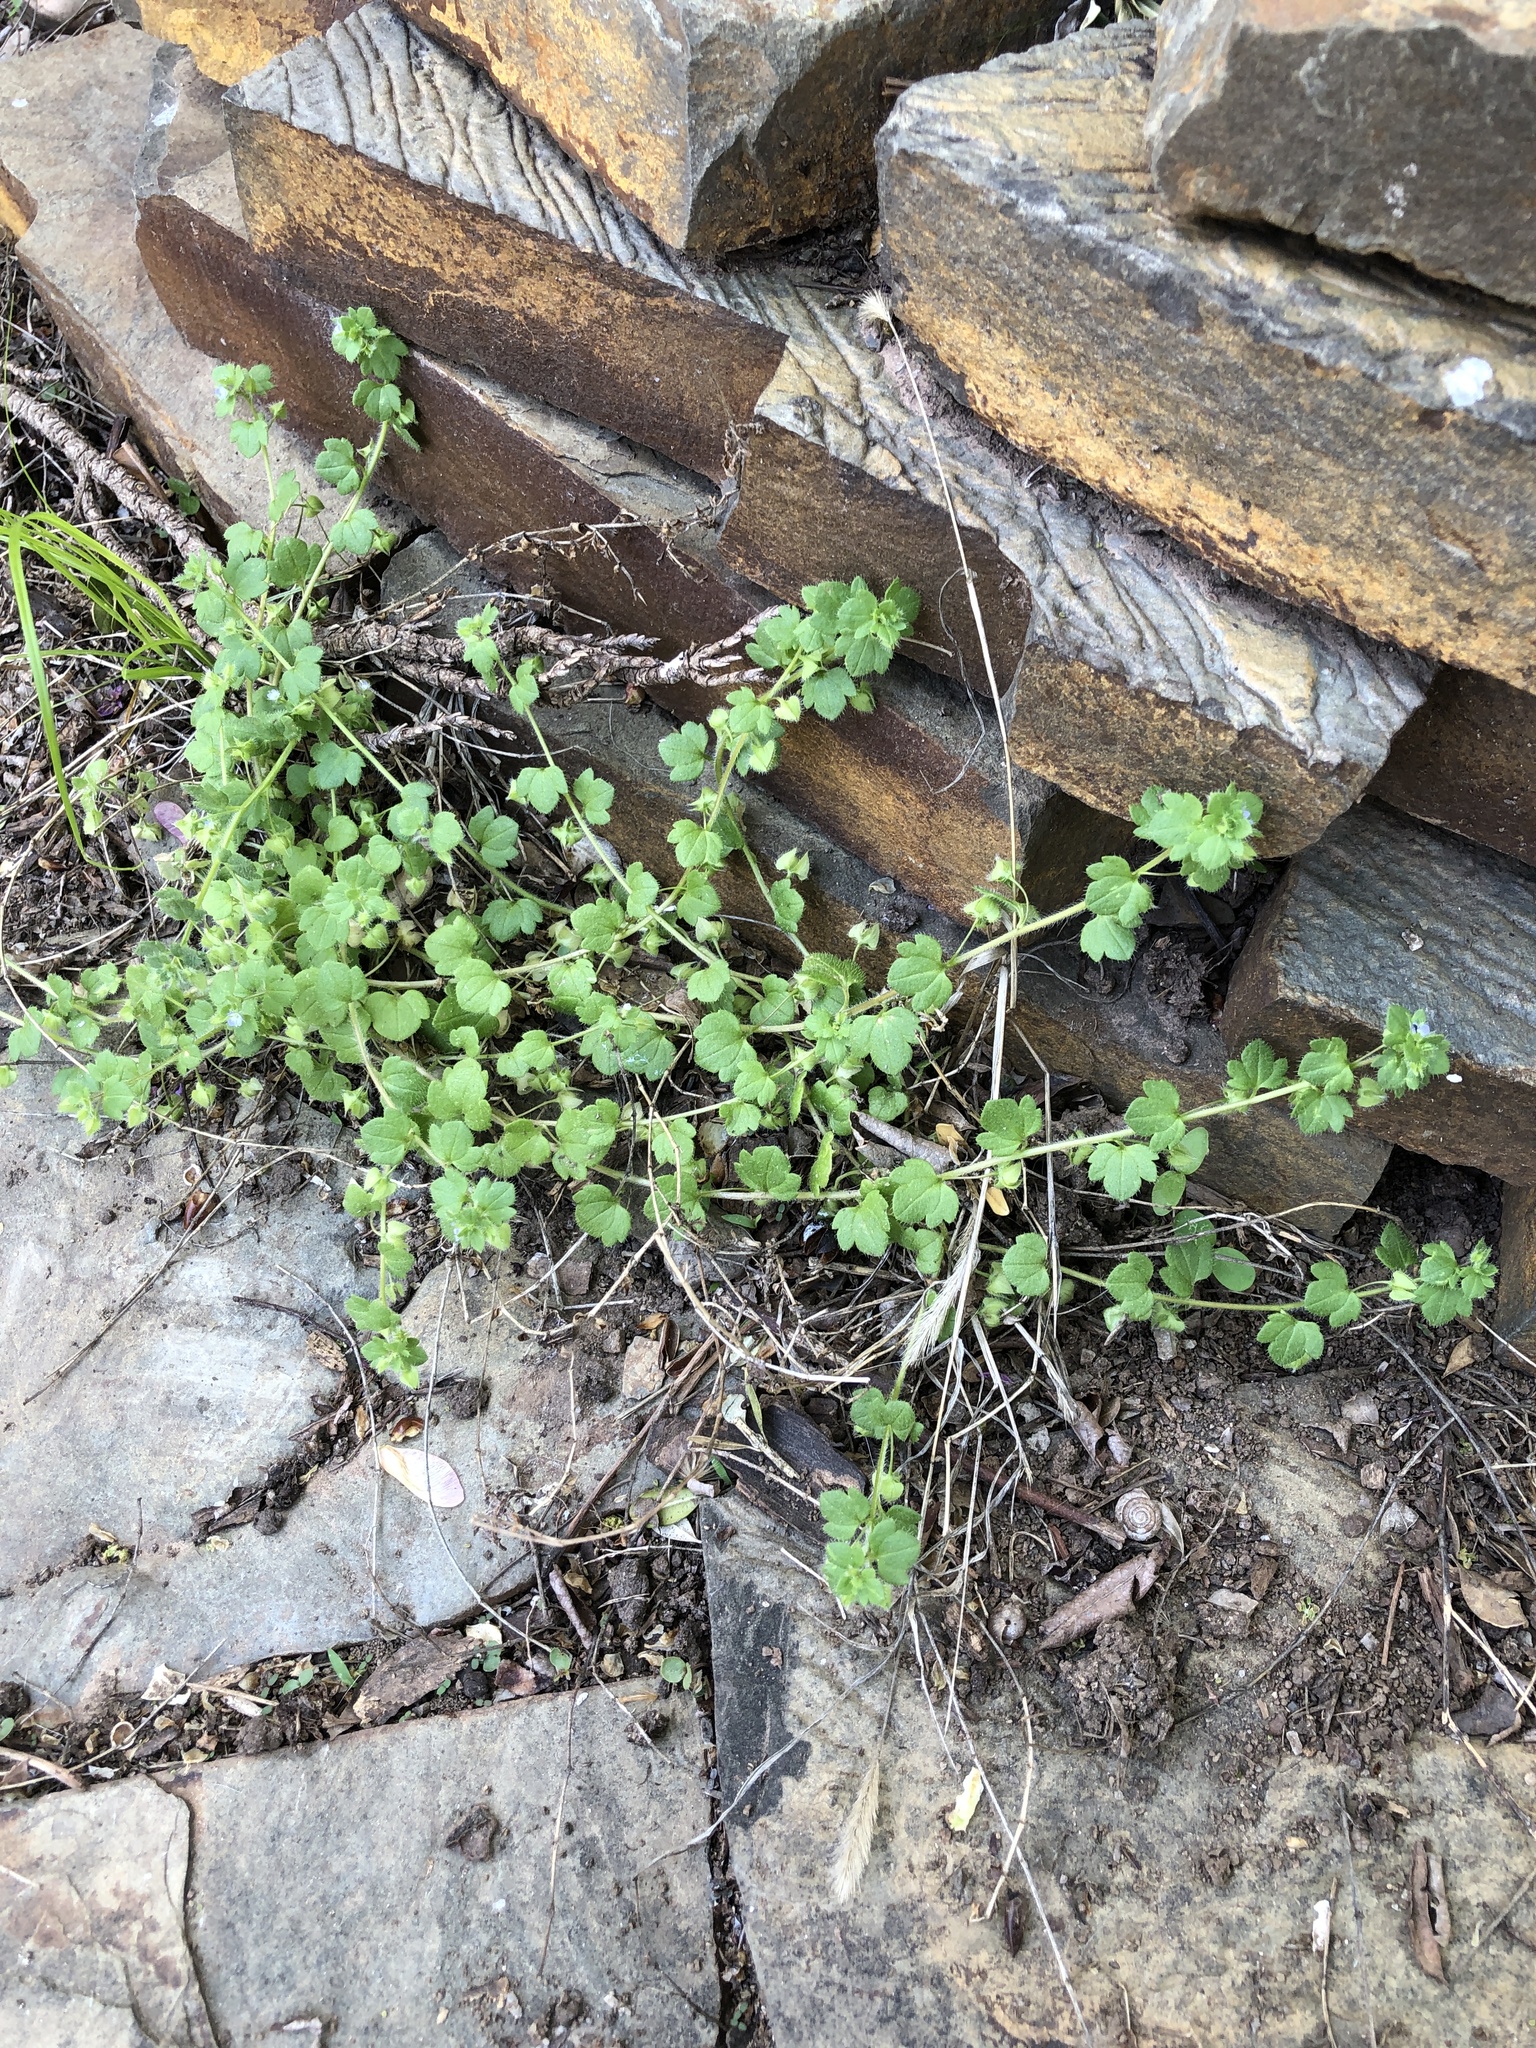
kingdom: Plantae
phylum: Tracheophyta
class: Magnoliopsida
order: Lamiales
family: Plantaginaceae
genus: Veronica
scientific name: Veronica hederifolia
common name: Ivy-leaved speedwell
